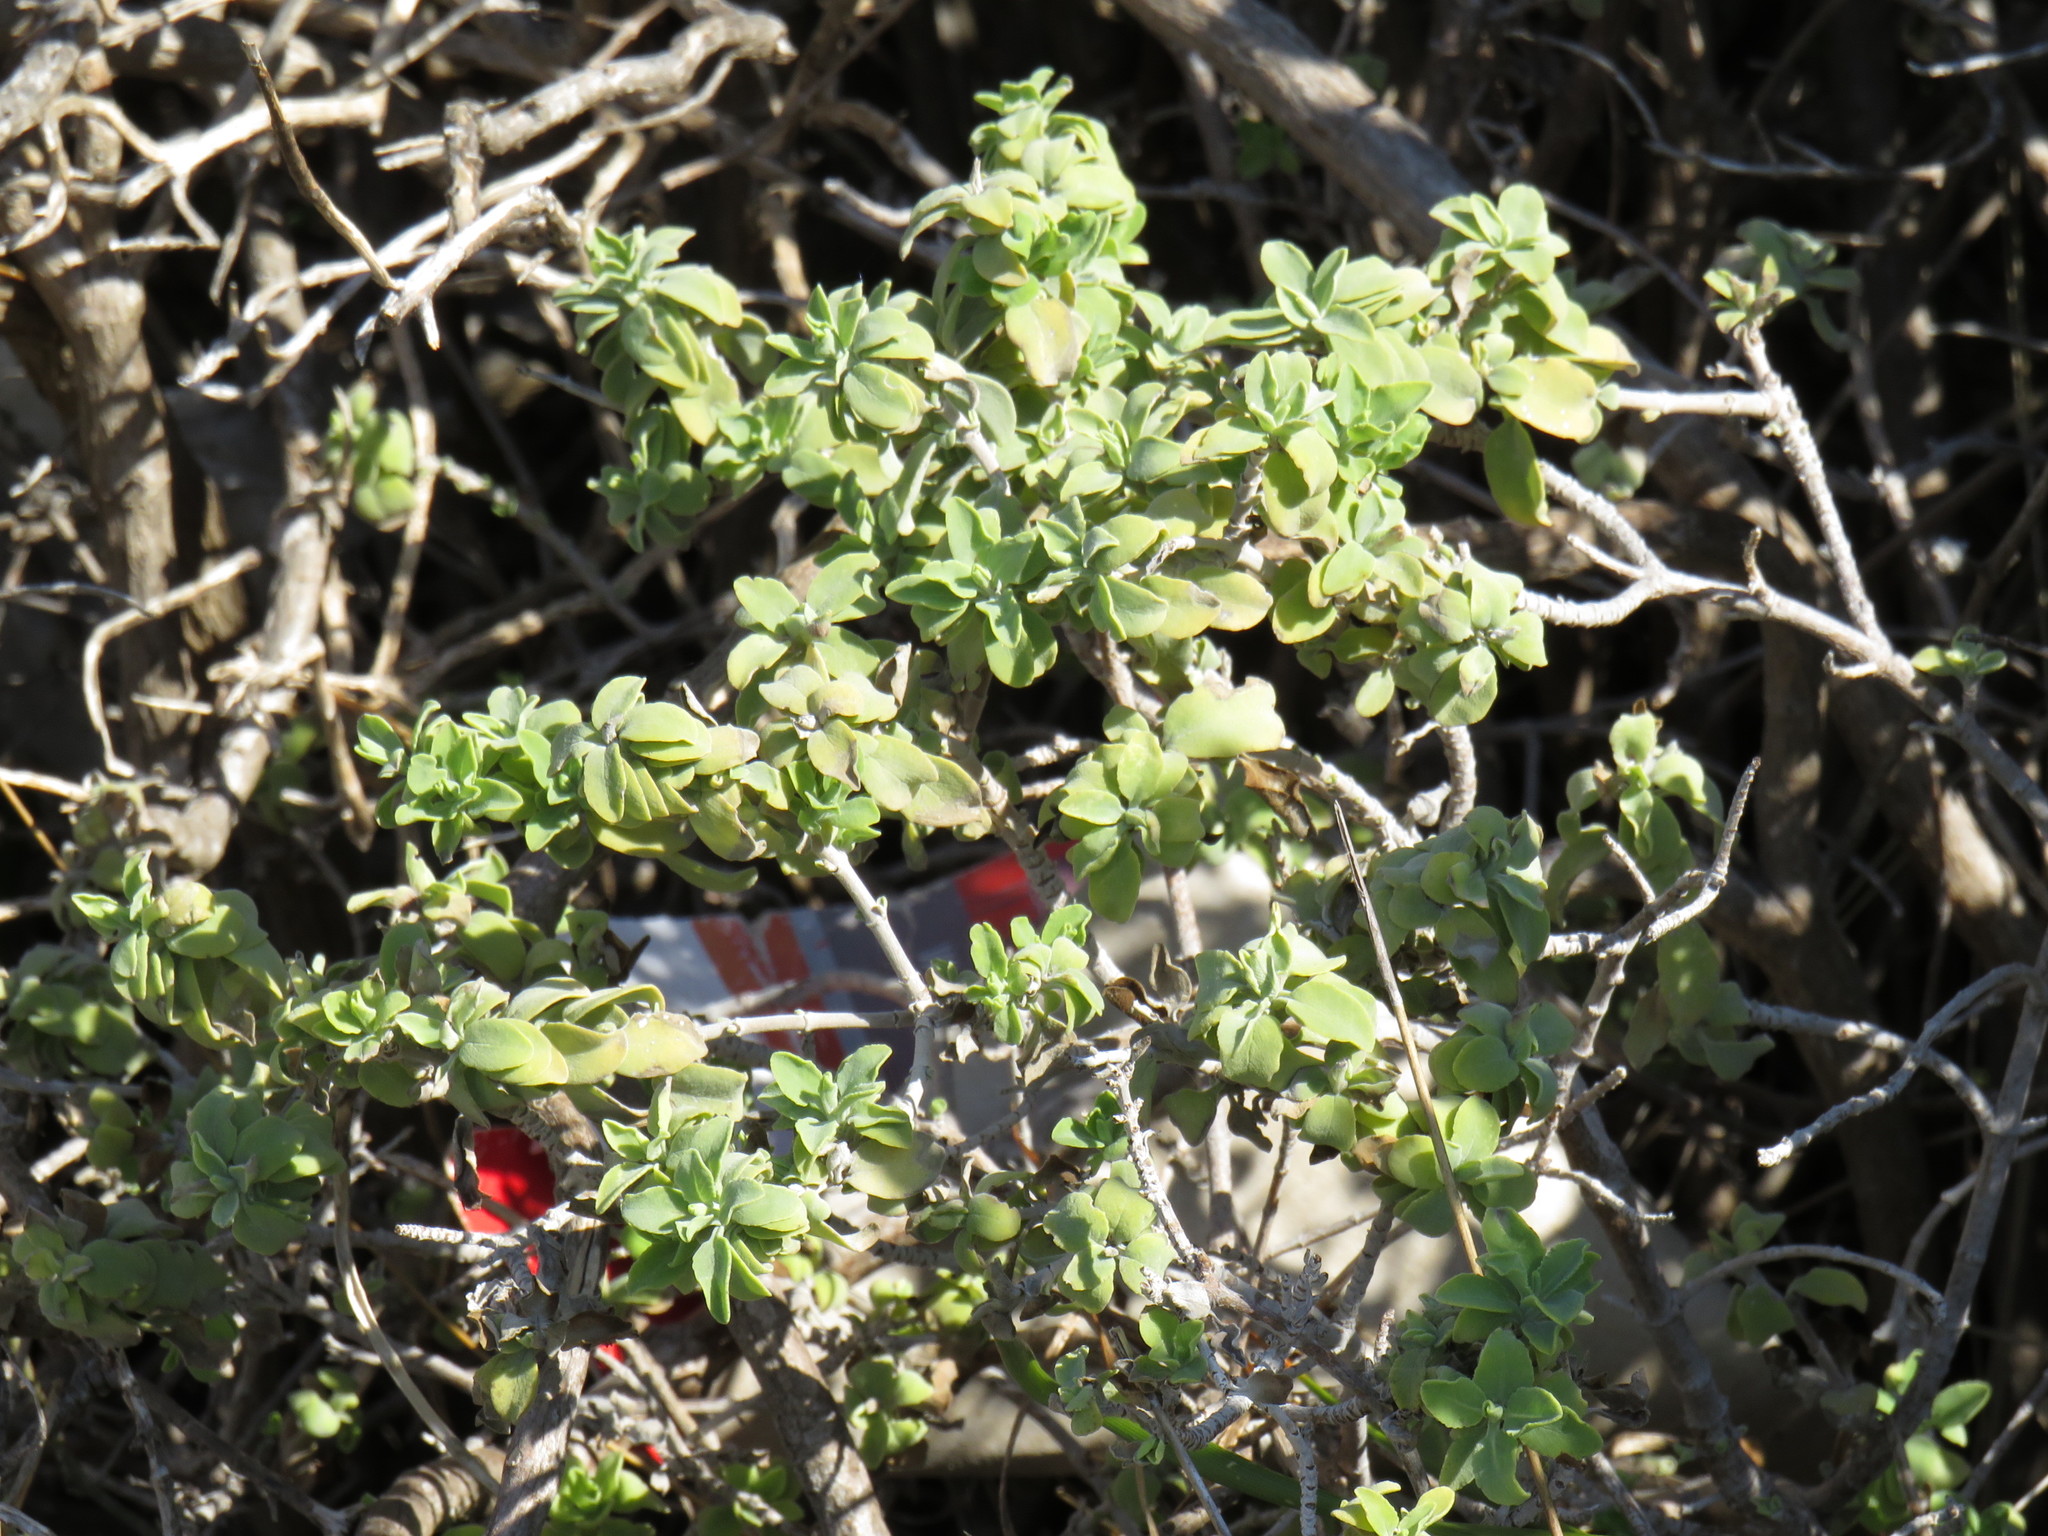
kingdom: Plantae
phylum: Tracheophyta
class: Magnoliopsida
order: Lamiales
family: Lamiaceae
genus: Salvia
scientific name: Salvia aurea
